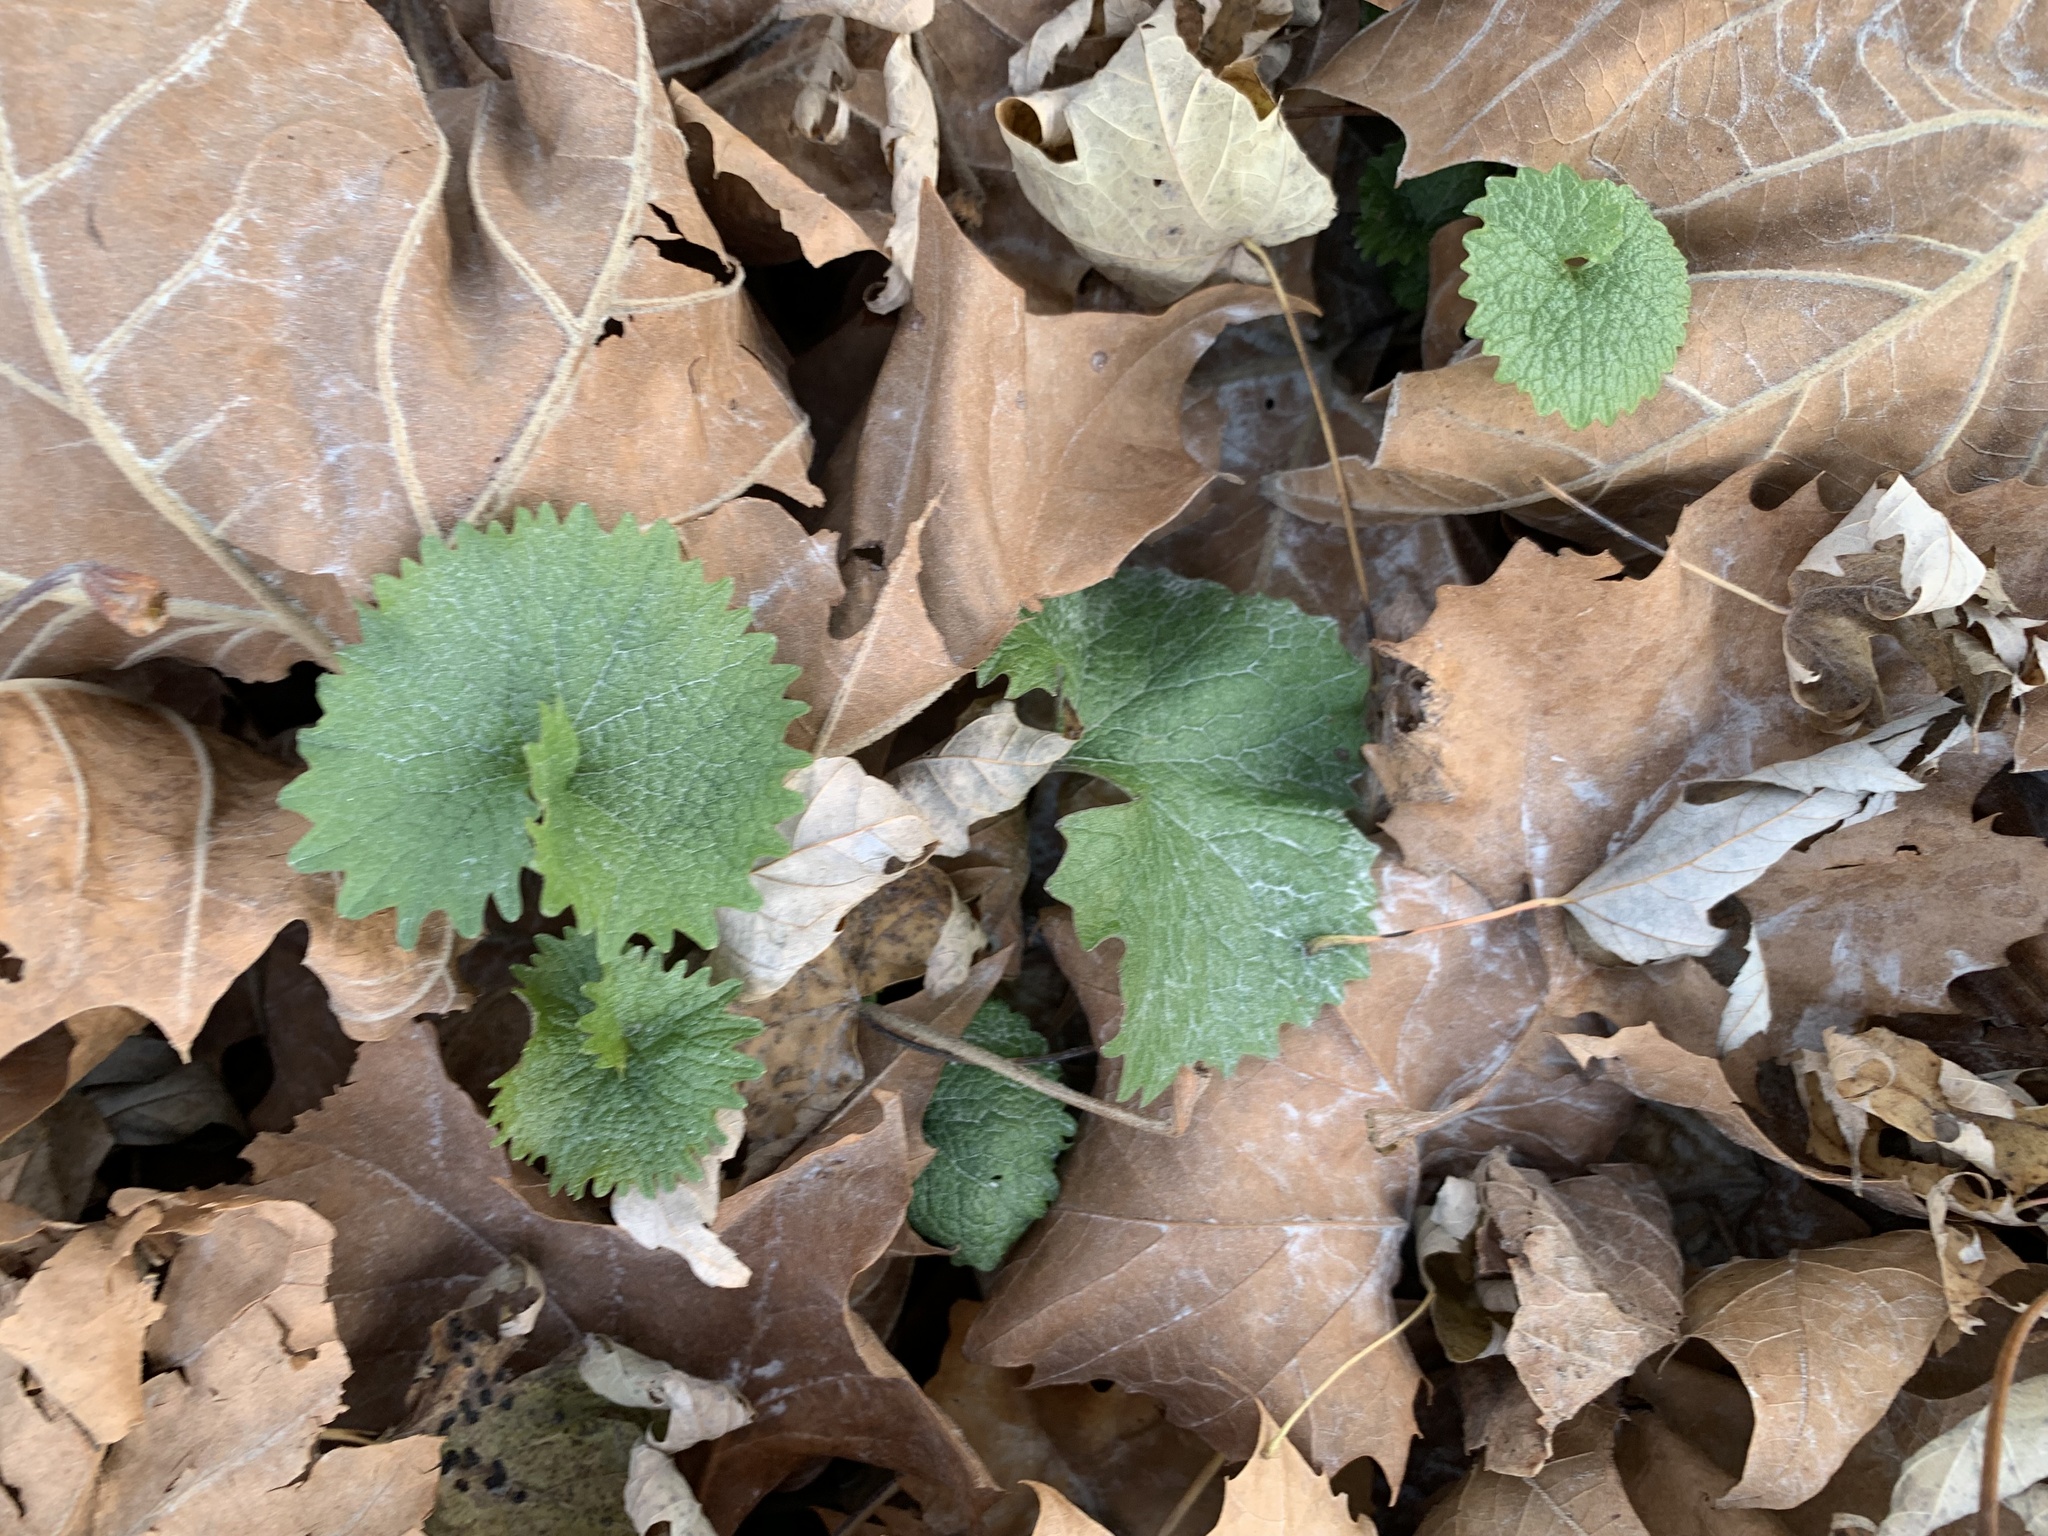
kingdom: Plantae
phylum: Tracheophyta
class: Magnoliopsida
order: Brassicales
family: Brassicaceae
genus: Alliaria
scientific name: Alliaria petiolata
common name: Garlic mustard
